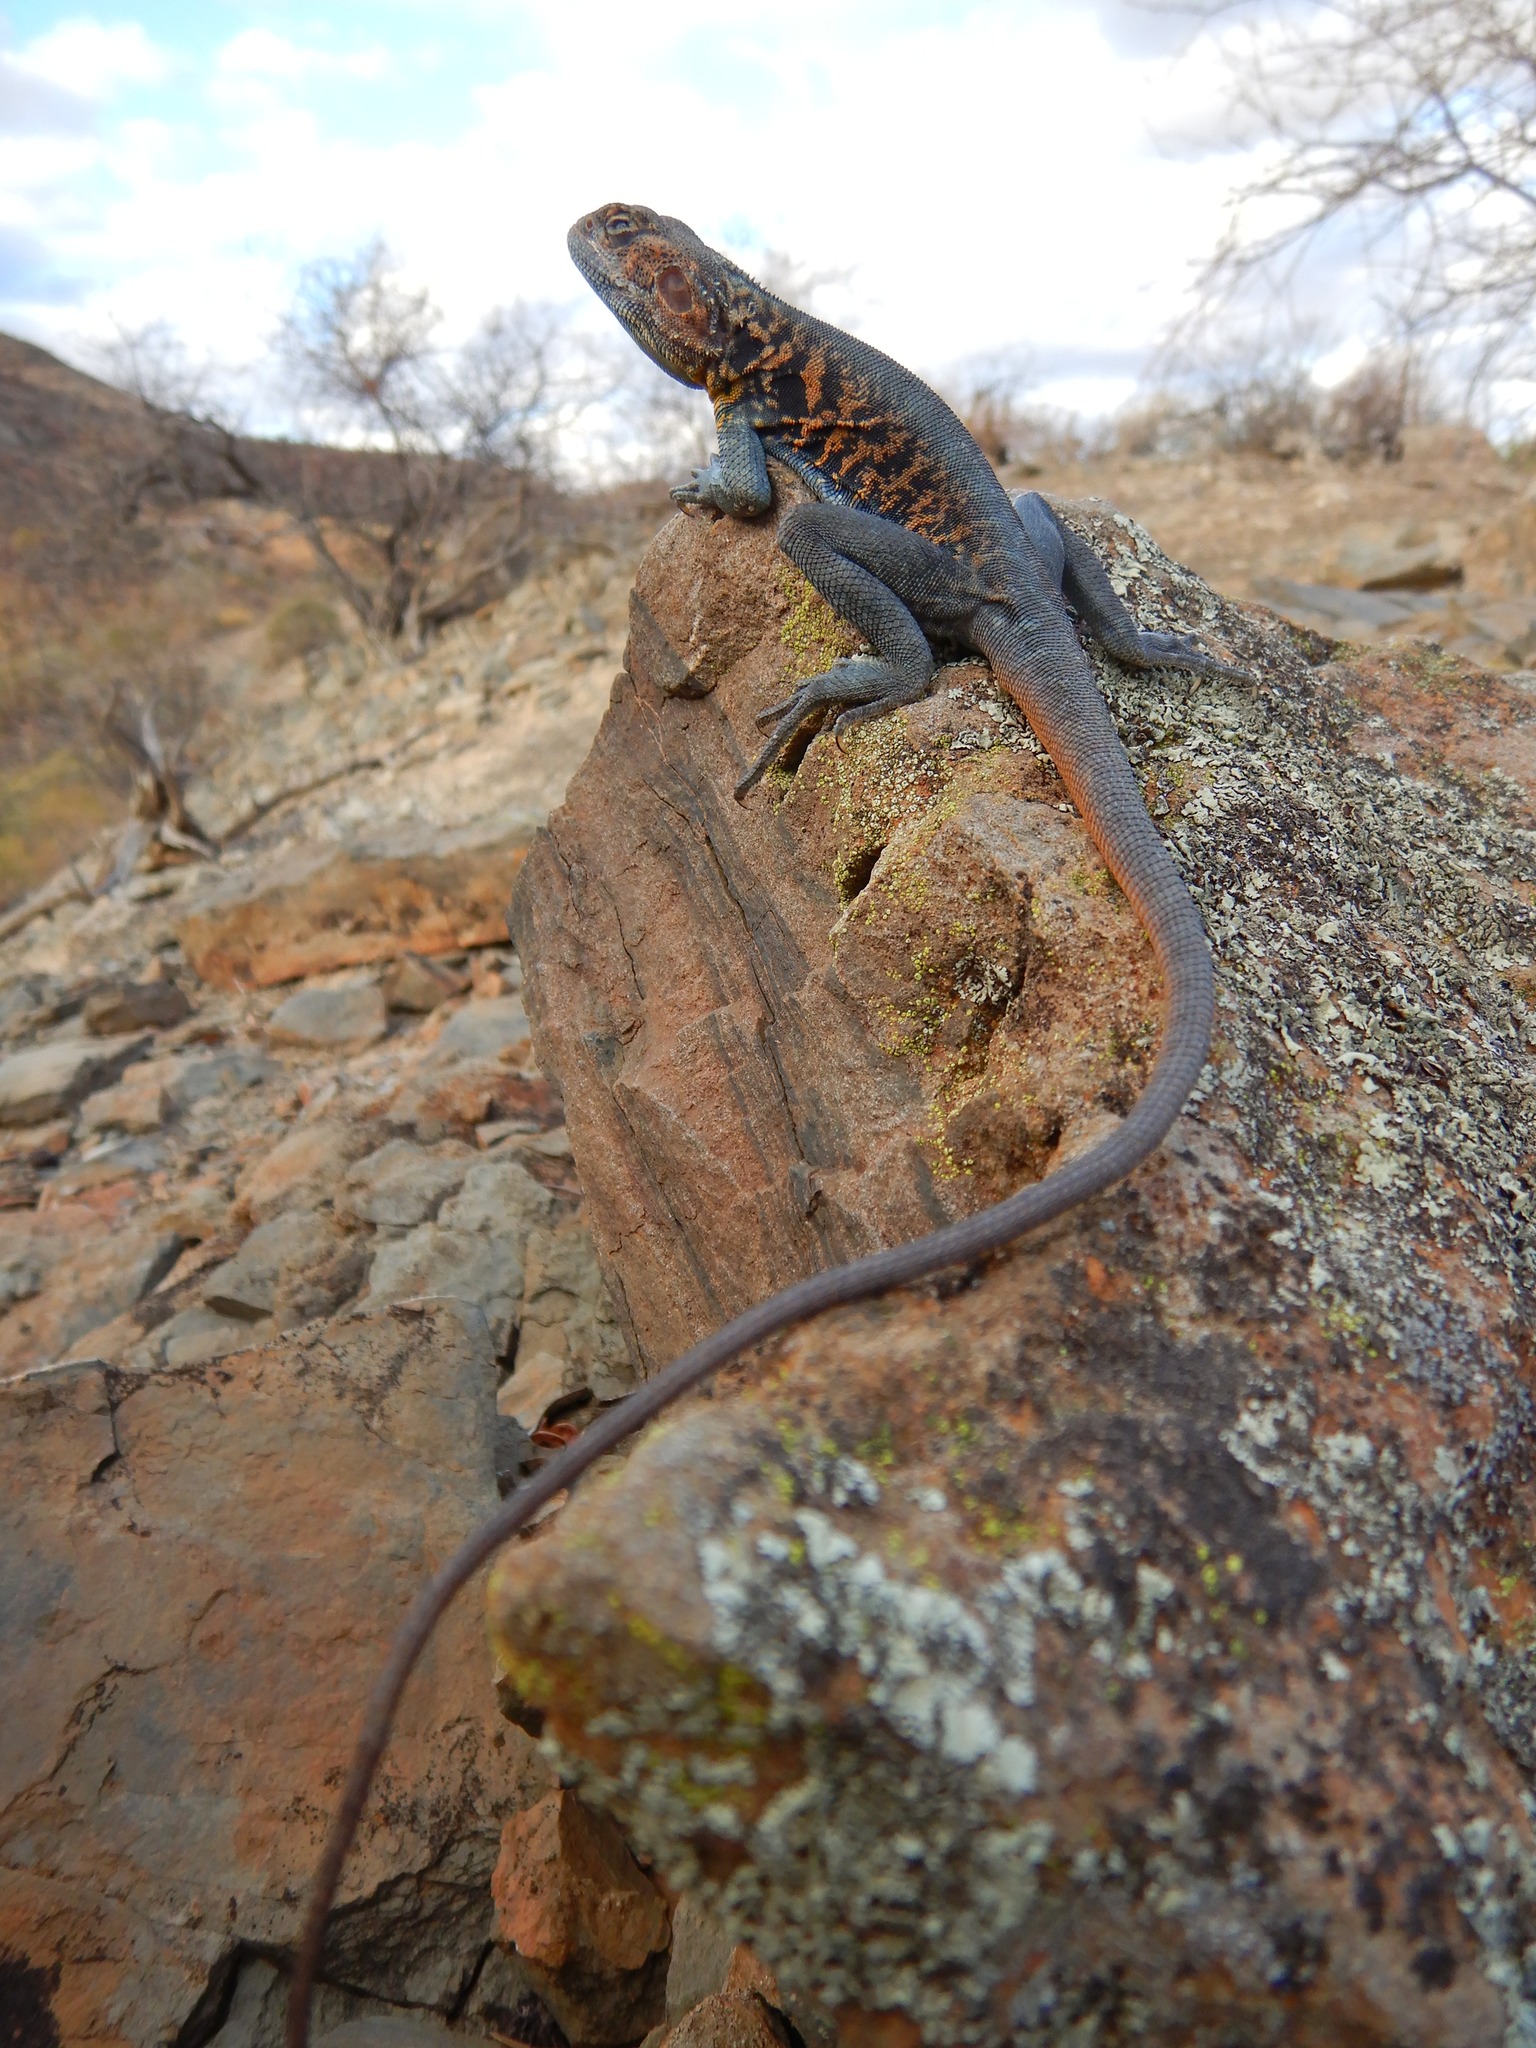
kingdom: Animalia
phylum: Chordata
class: Squamata
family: Agamidae
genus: Ctenophorus
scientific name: Ctenophorus vadnappa
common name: Red-barred crevice-dragon
